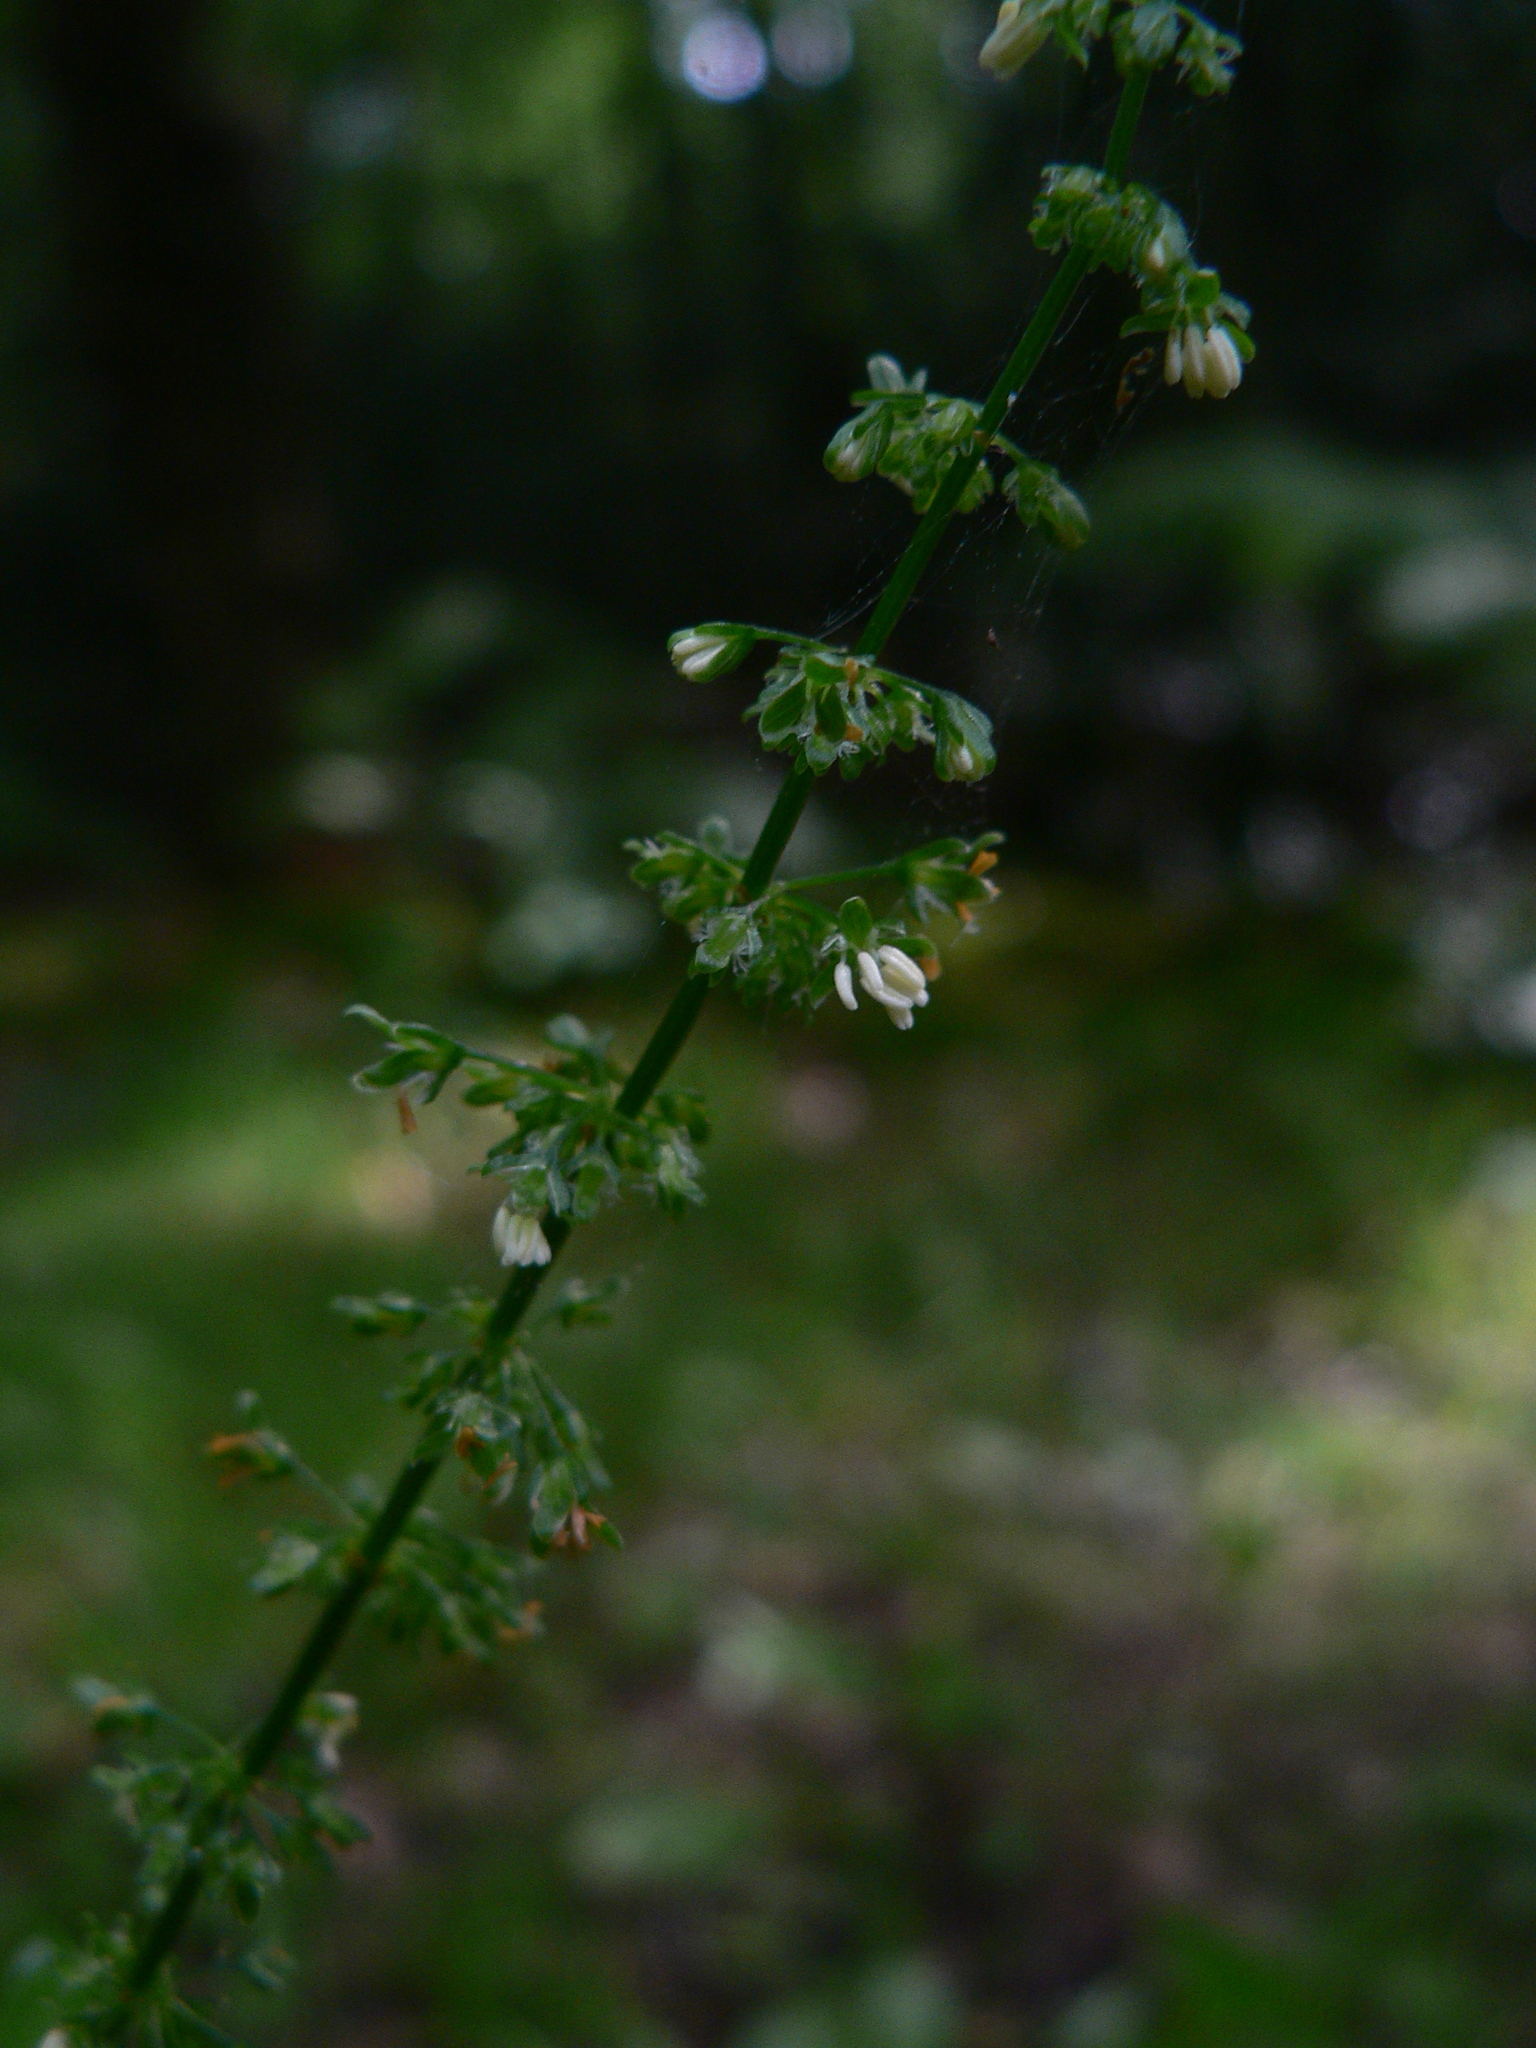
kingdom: Plantae
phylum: Tracheophyta
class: Magnoliopsida
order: Caryophyllales
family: Polygonaceae
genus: Rumex
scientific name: Rumex sanguineus
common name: Wood dock
